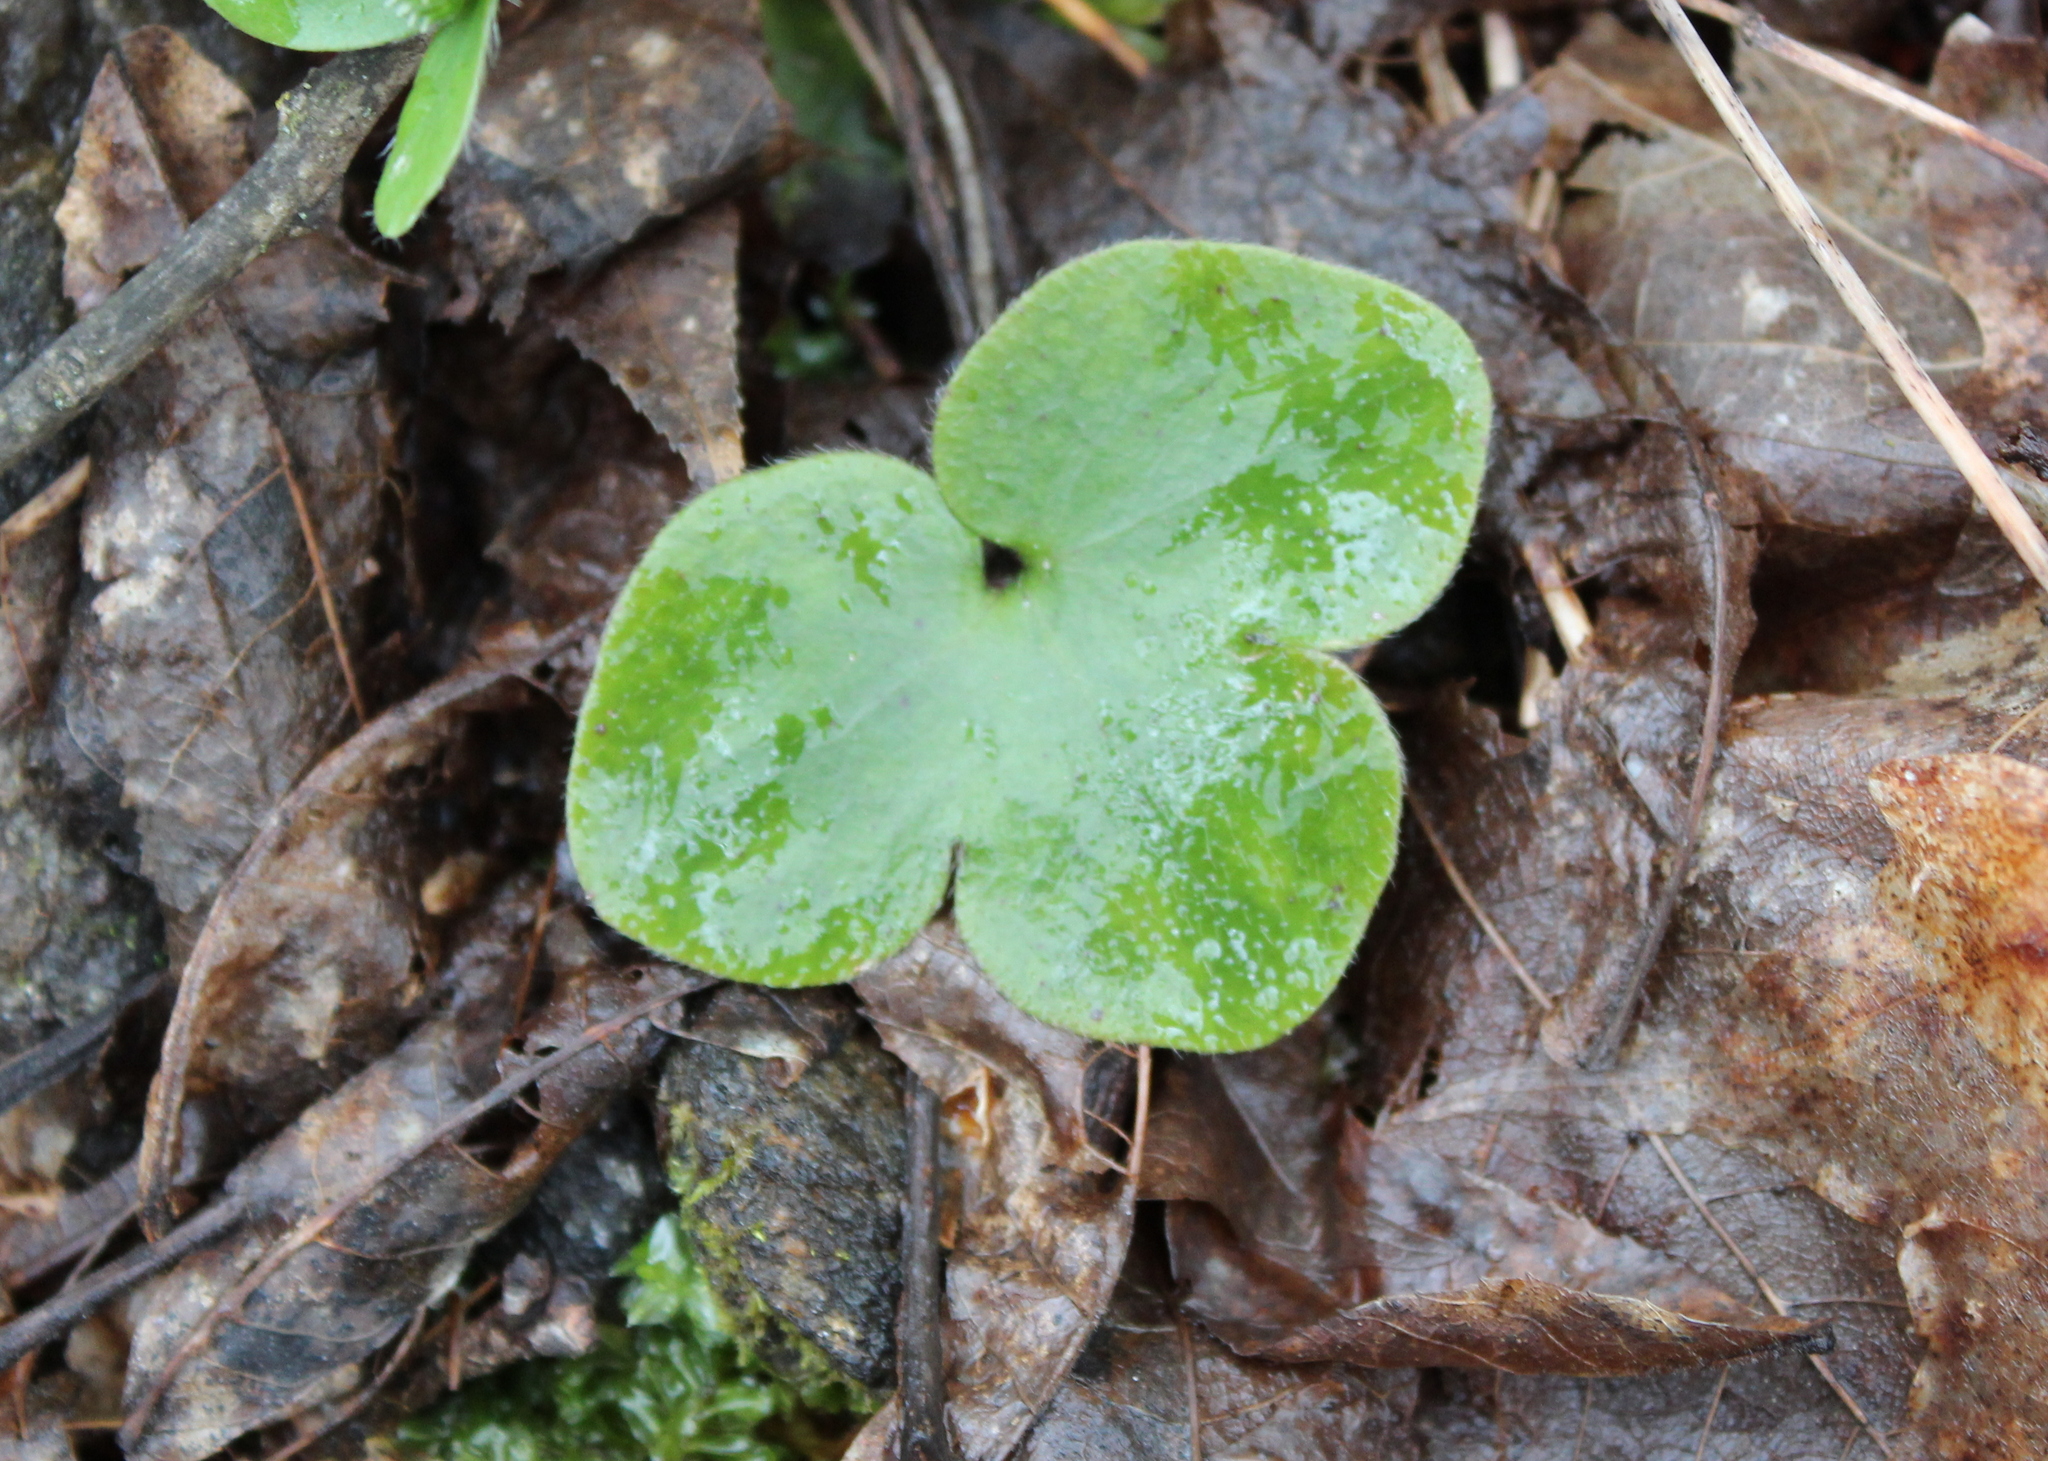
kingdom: Plantae
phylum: Tracheophyta
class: Magnoliopsida
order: Ranunculales
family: Ranunculaceae
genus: Hepatica
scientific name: Hepatica americana
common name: American hepatica
